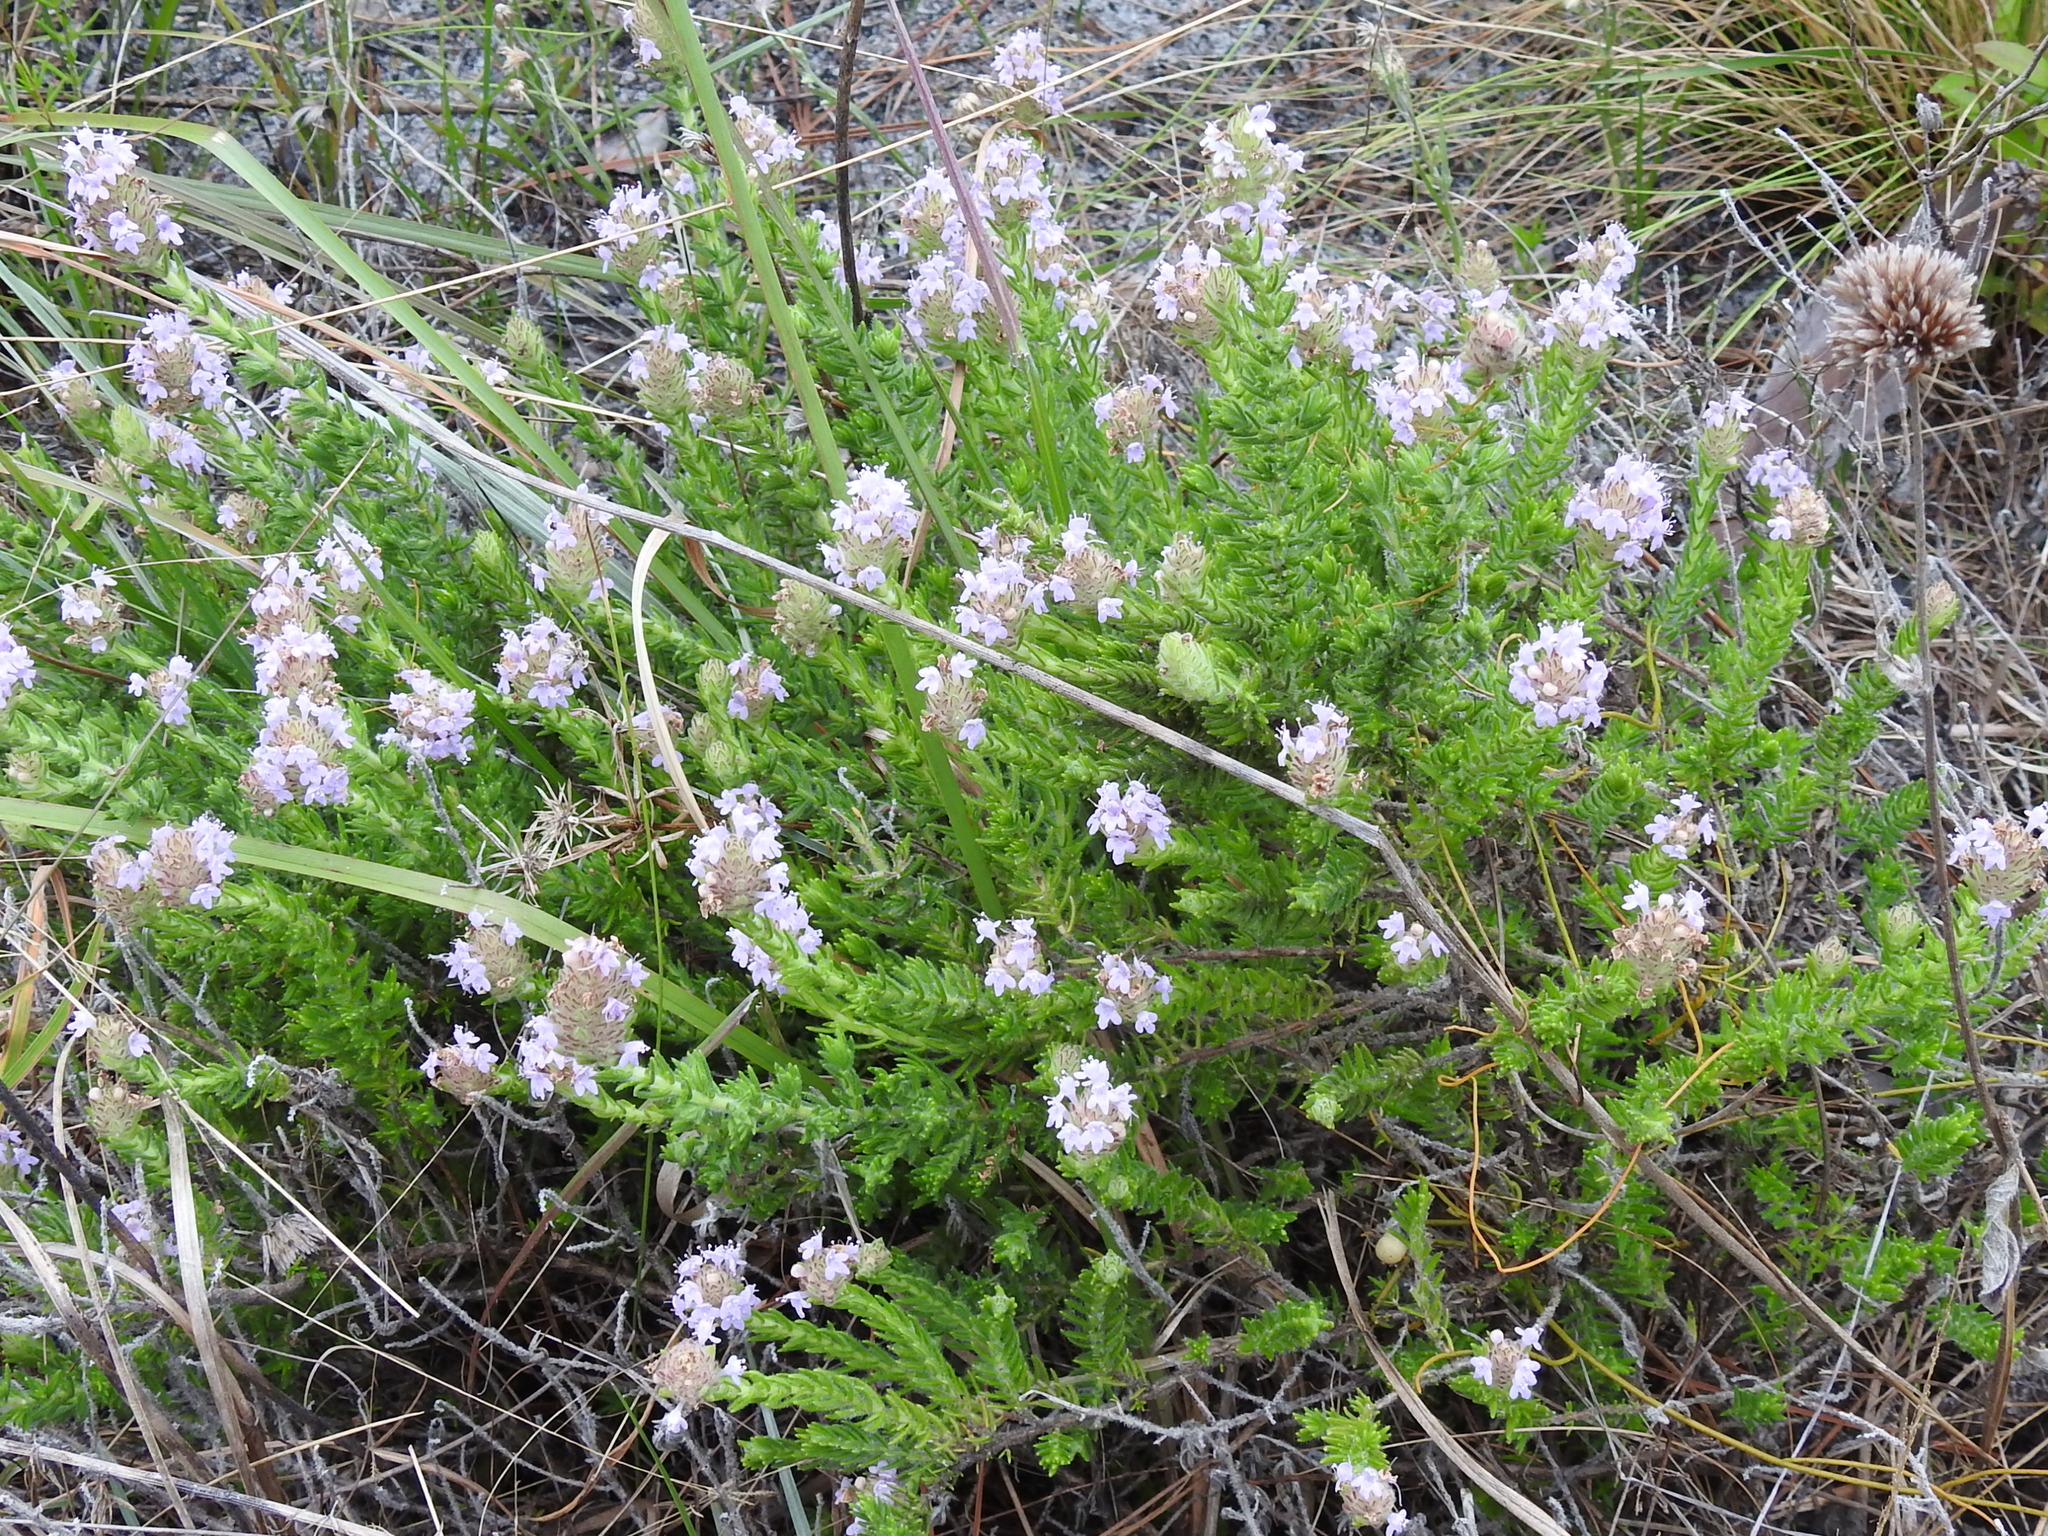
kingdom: Plantae
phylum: Tracheophyta
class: Magnoliopsida
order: Lamiales
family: Lamiaceae
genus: Piloblephis
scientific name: Piloblephis rigida
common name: Wild pennyroyal
